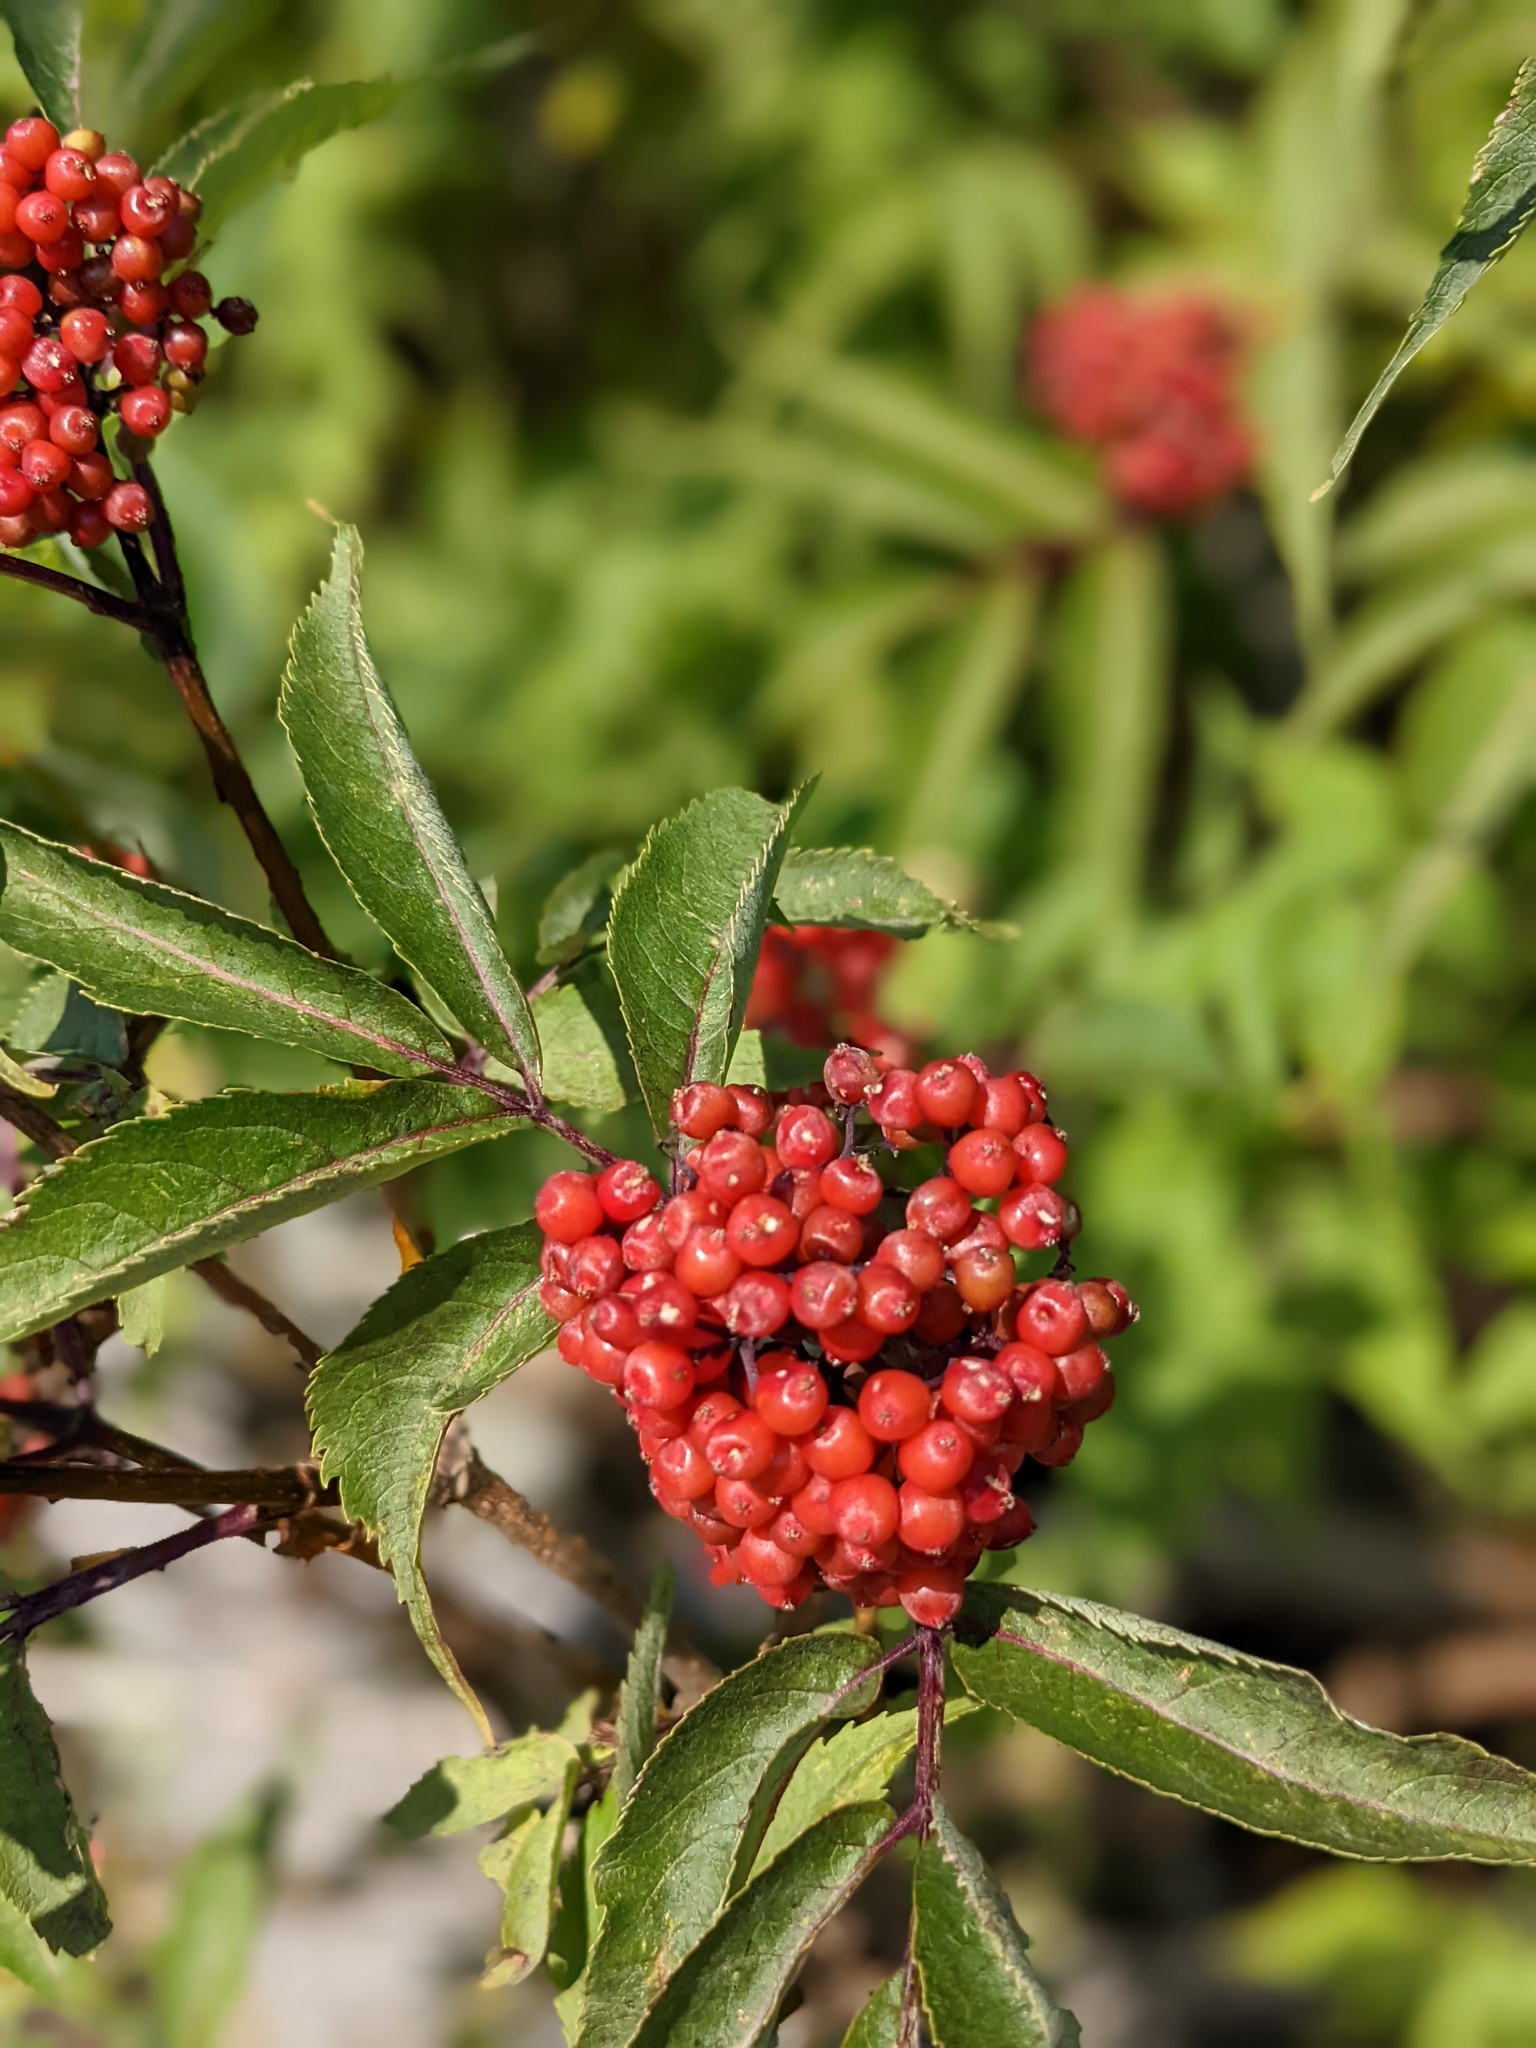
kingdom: Plantae
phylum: Tracheophyta
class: Magnoliopsida
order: Dipsacales
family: Viburnaceae
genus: Sambucus
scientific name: Sambucus racemosa
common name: Red-berried elder
